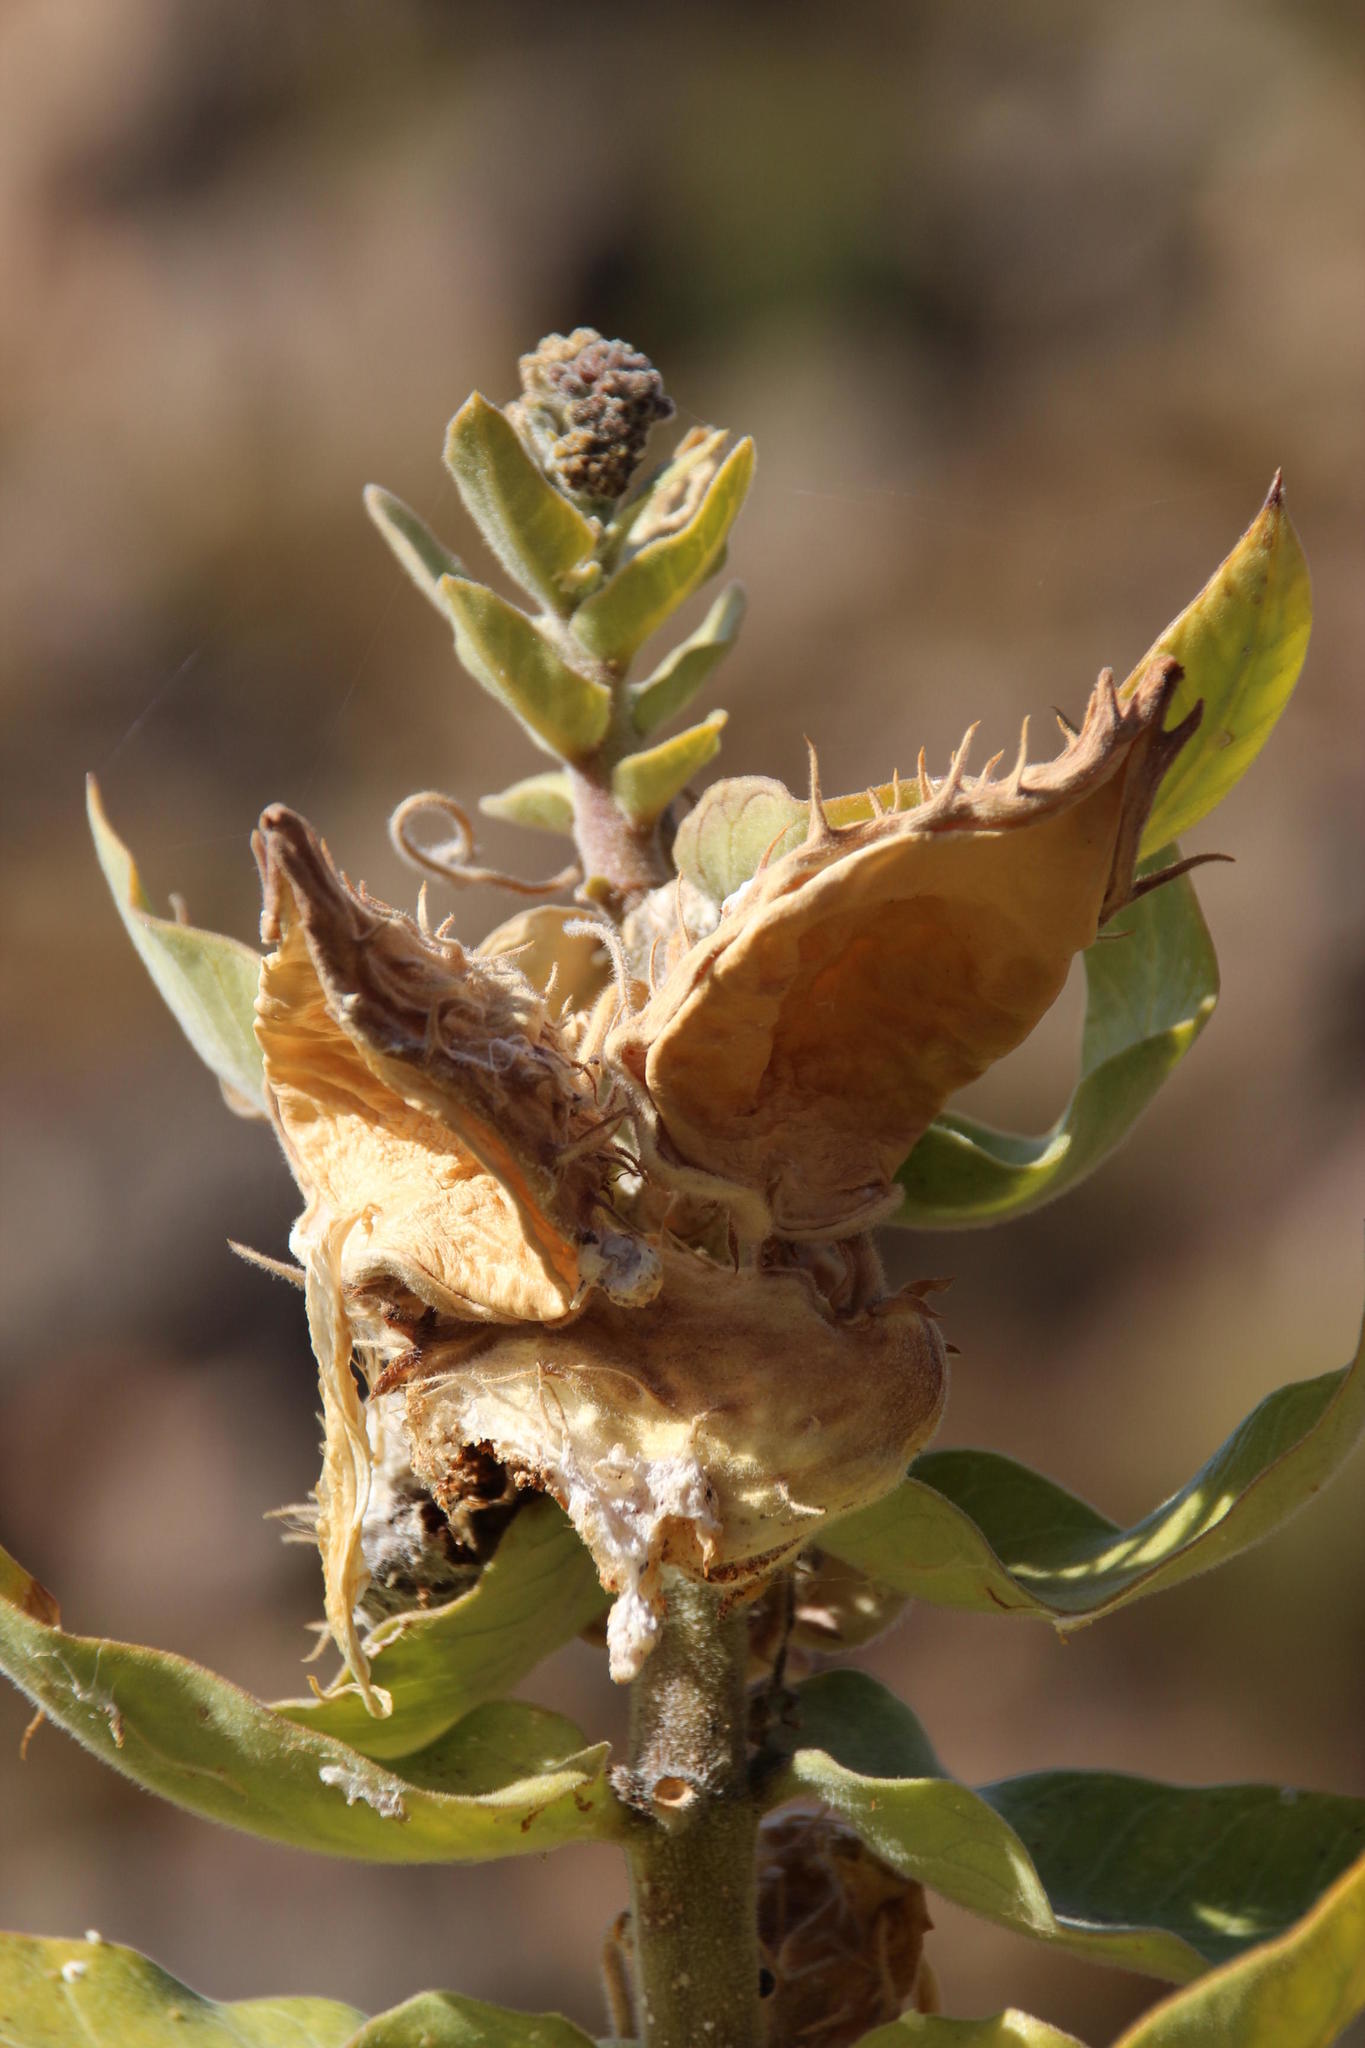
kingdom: Plantae
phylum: Tracheophyta
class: Magnoliopsida
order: Gentianales
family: Apocynaceae
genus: Gomphocarpus
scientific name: Gomphocarpus cancellatus
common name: Wild cotton
